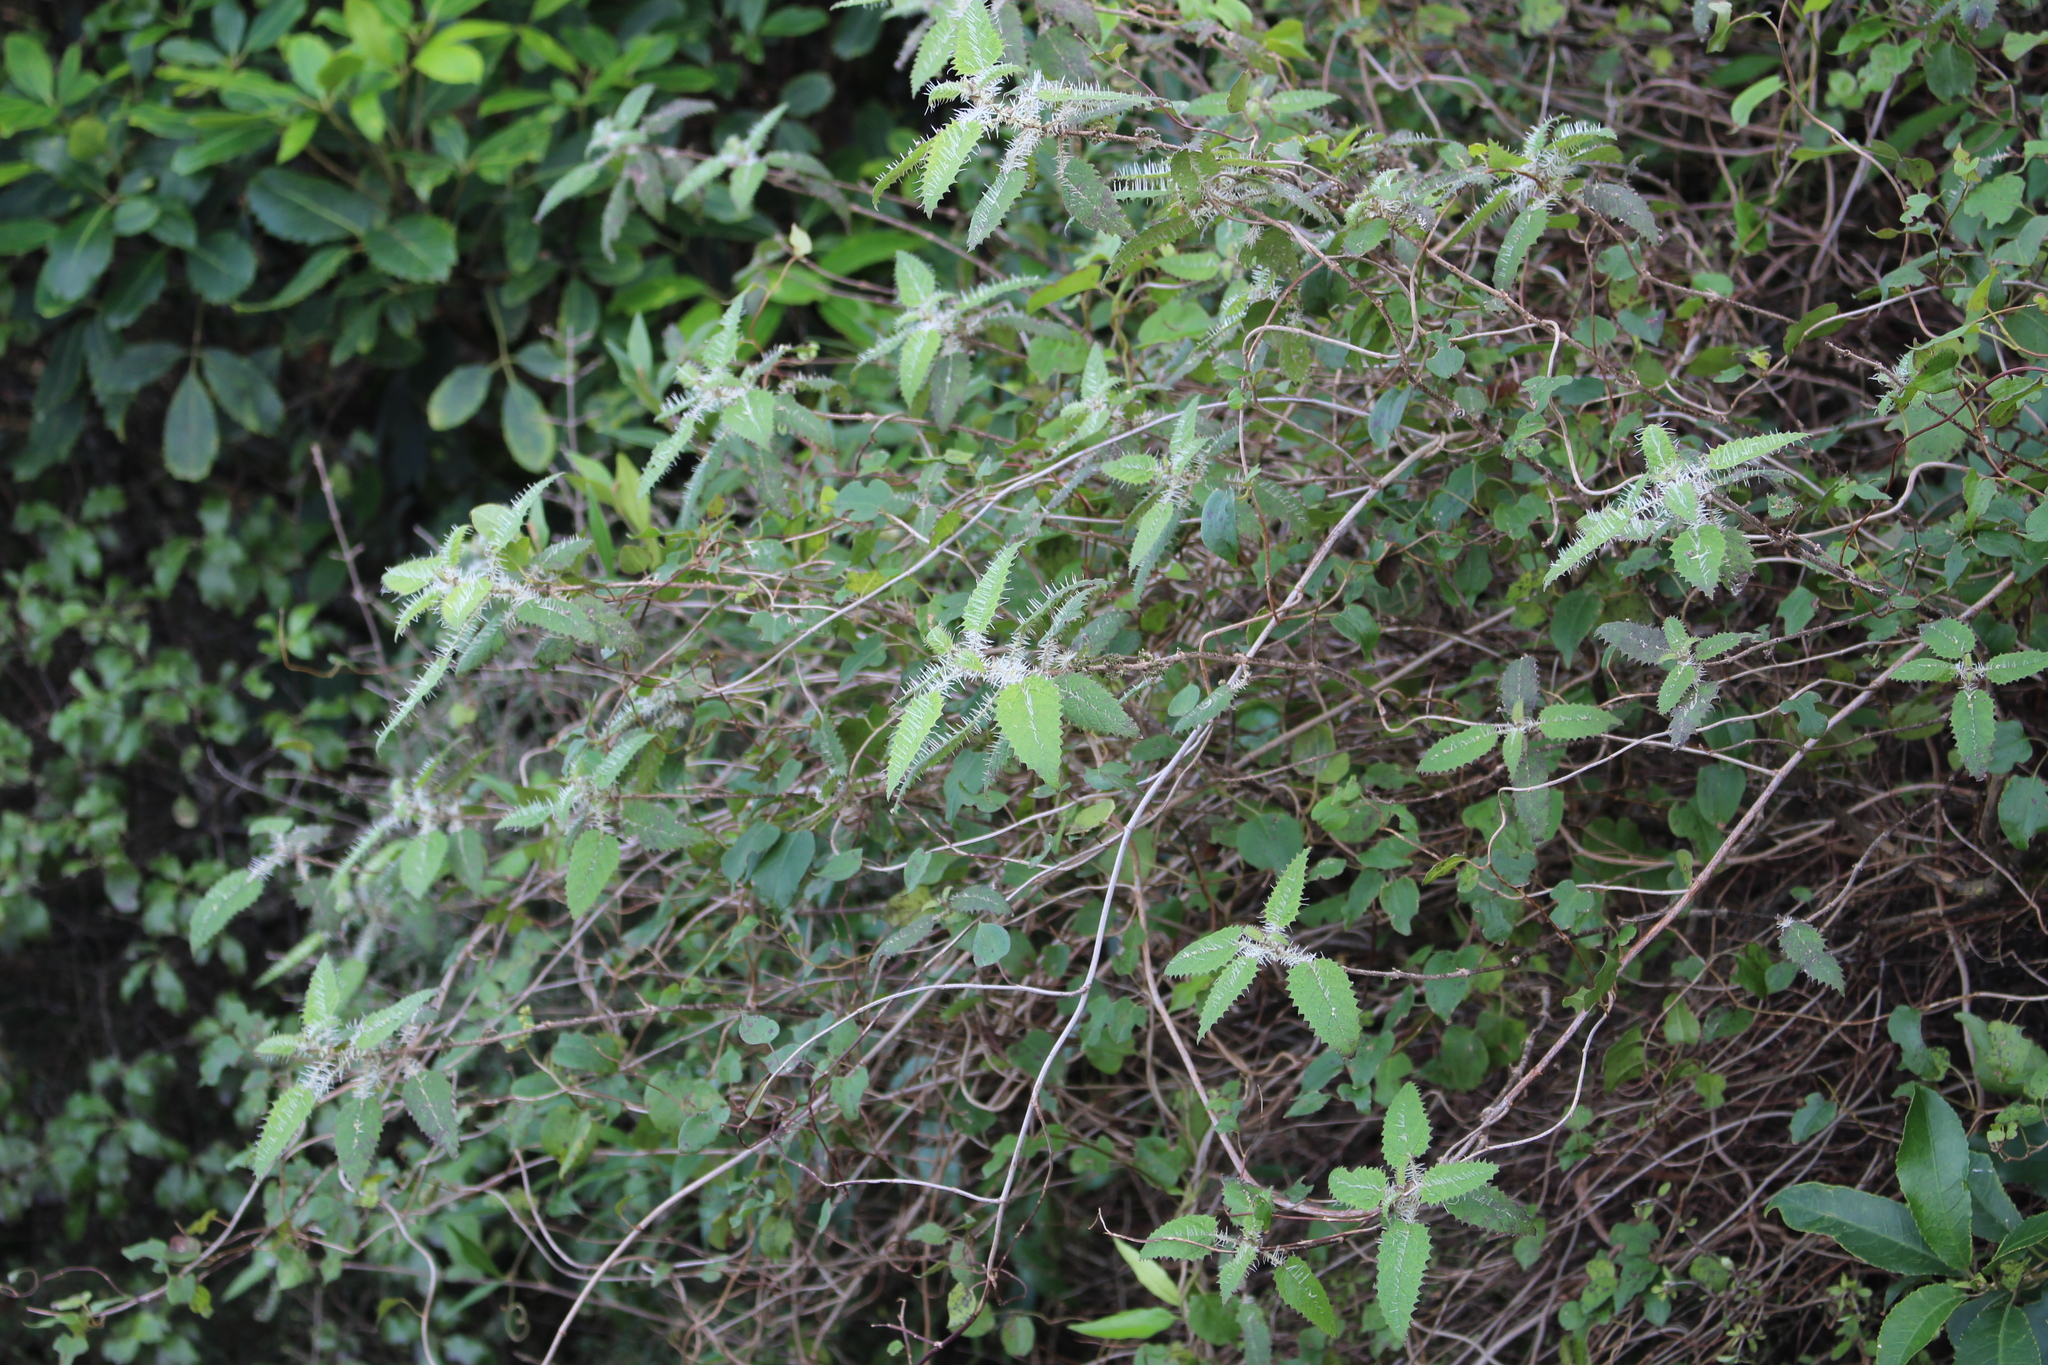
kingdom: Plantae
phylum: Tracheophyta
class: Magnoliopsida
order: Rosales
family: Urticaceae
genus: Urtica
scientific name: Urtica ferox
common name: Tree nettle
